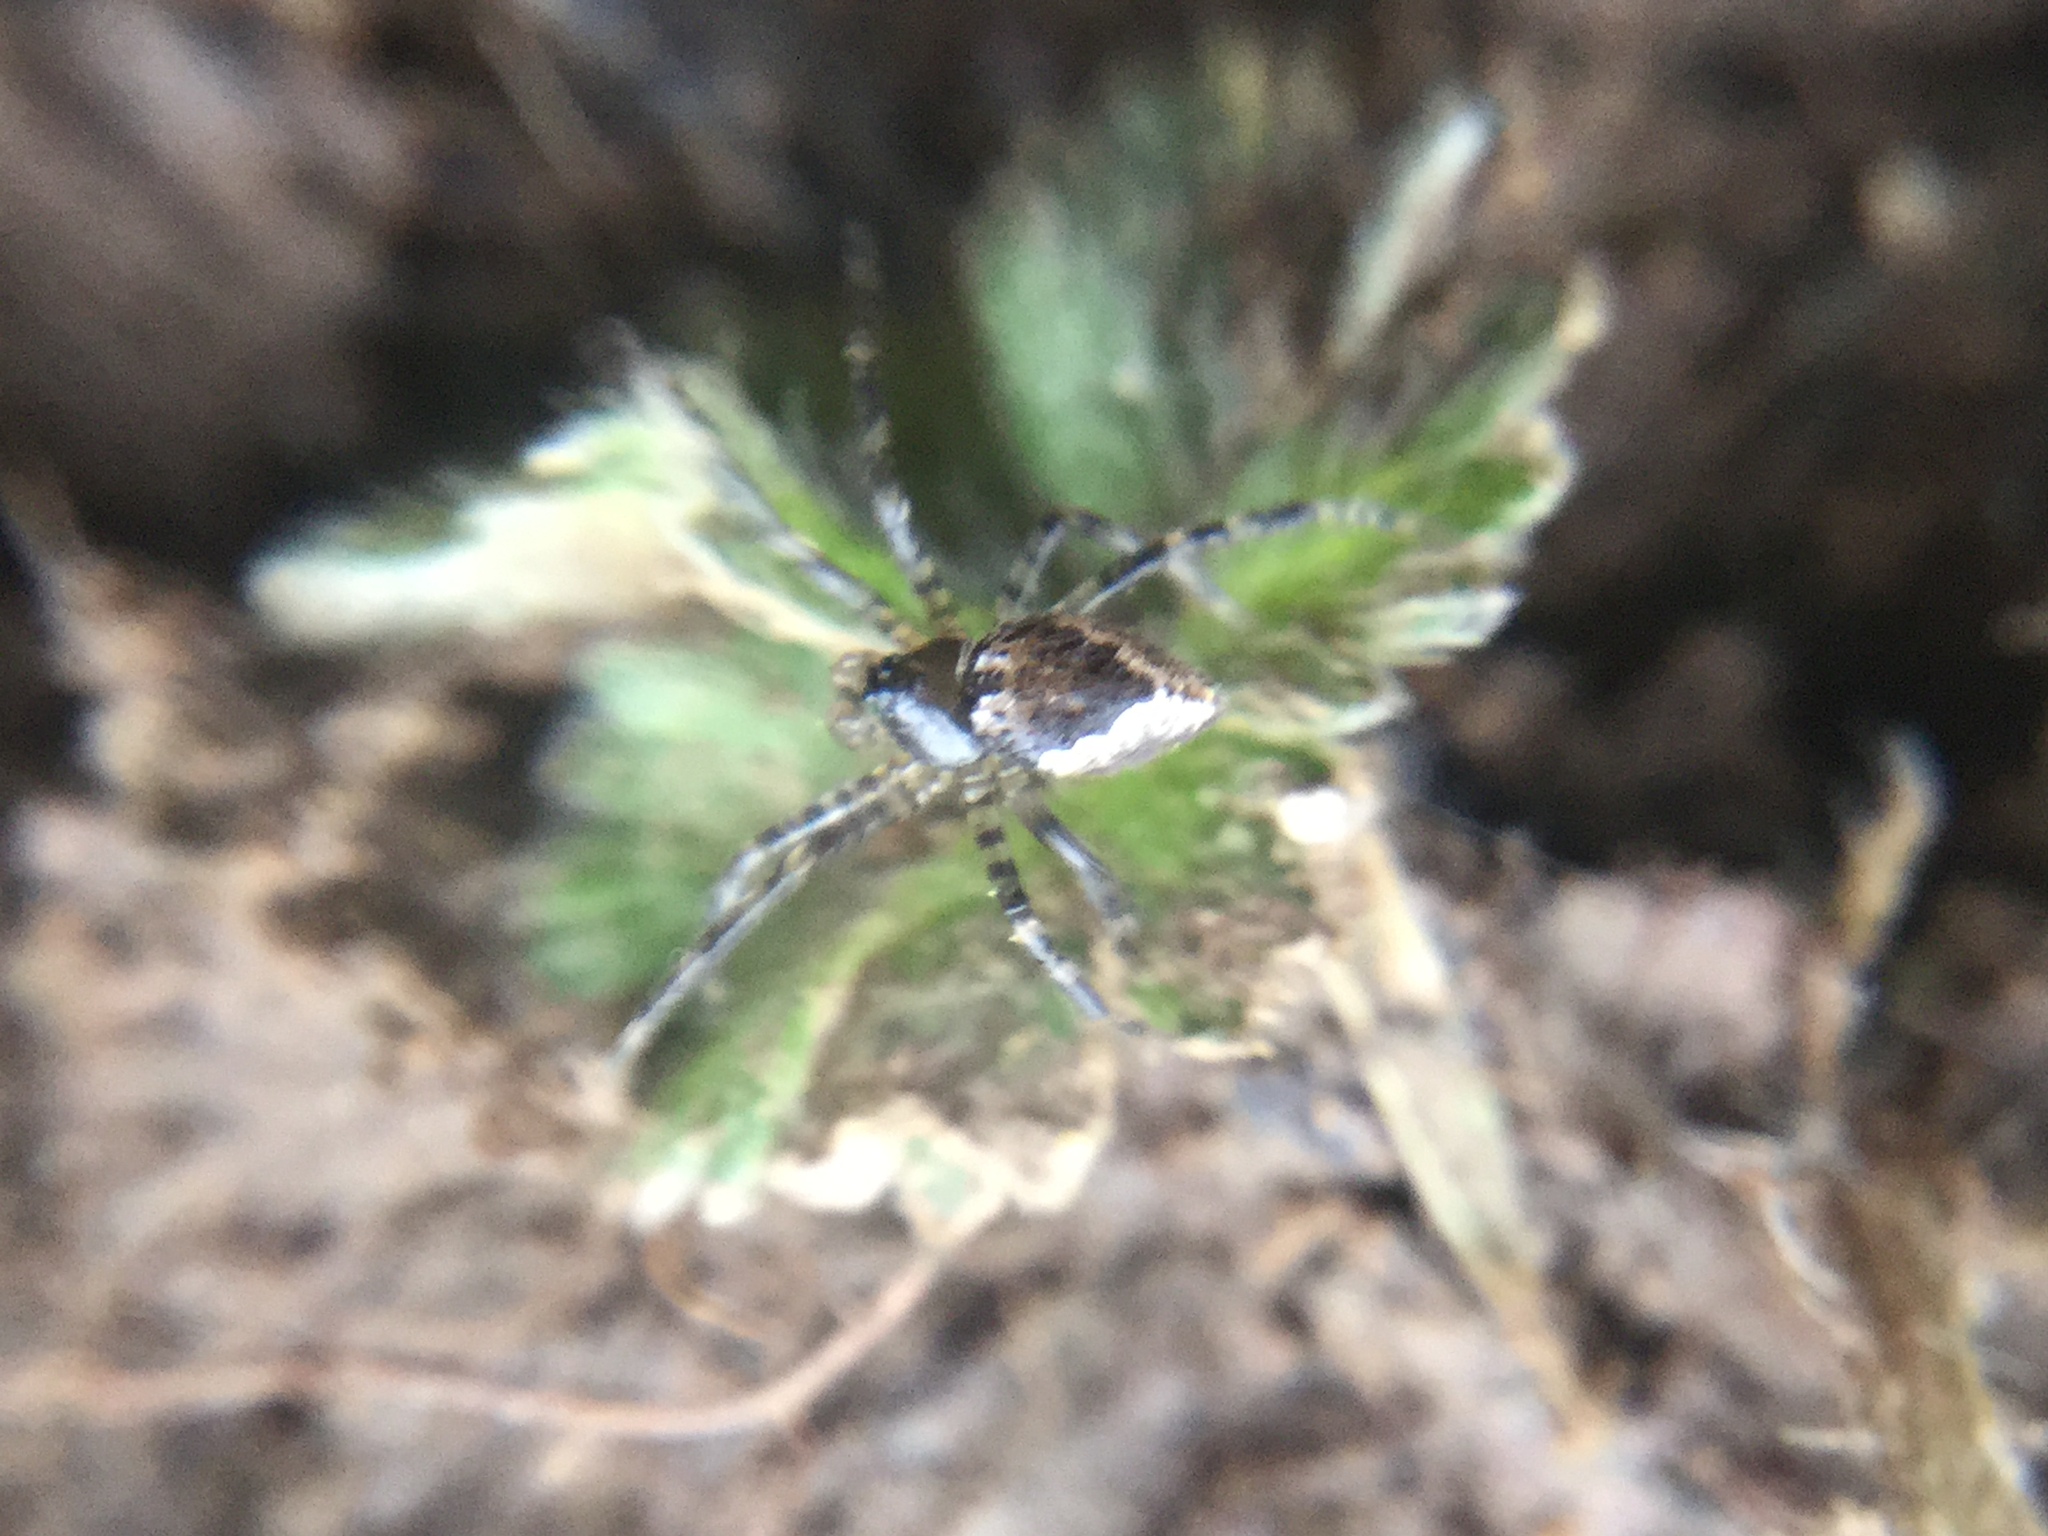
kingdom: Animalia
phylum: Arthropoda
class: Arachnida
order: Araneae
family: Theridiidae
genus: Euryopis
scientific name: Euryopis funebris
